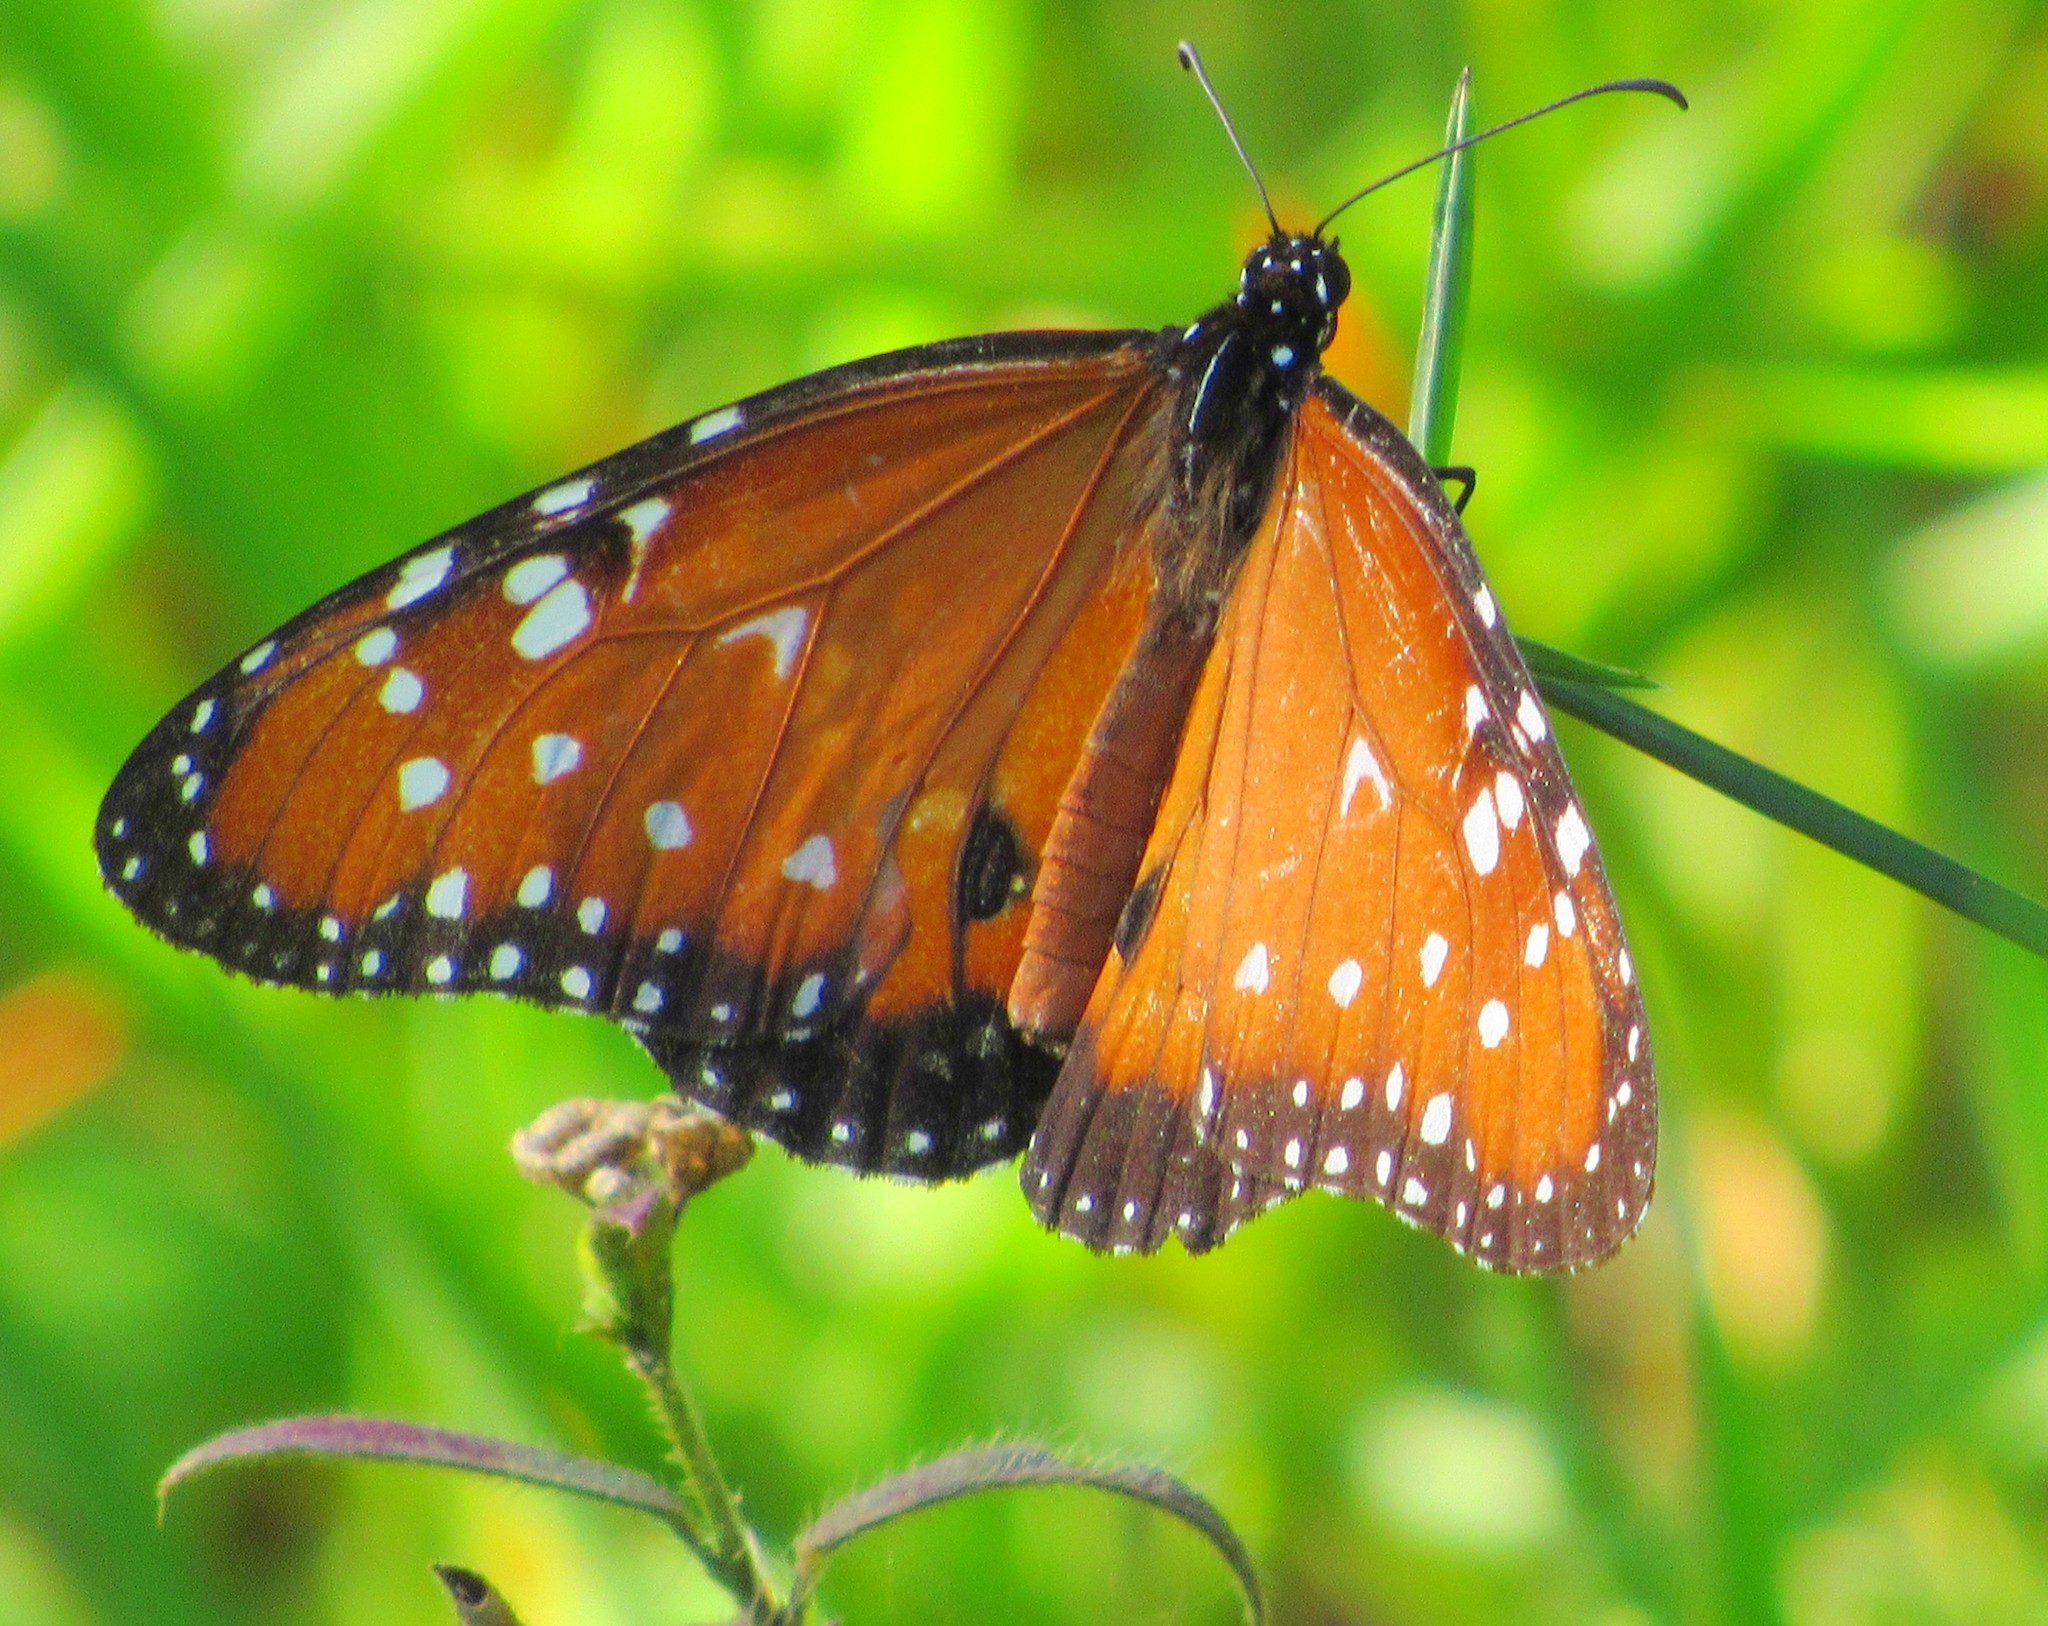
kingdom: Animalia
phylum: Arthropoda
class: Insecta
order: Lepidoptera
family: Nymphalidae
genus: Danaus
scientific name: Danaus gilippus
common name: Queen
